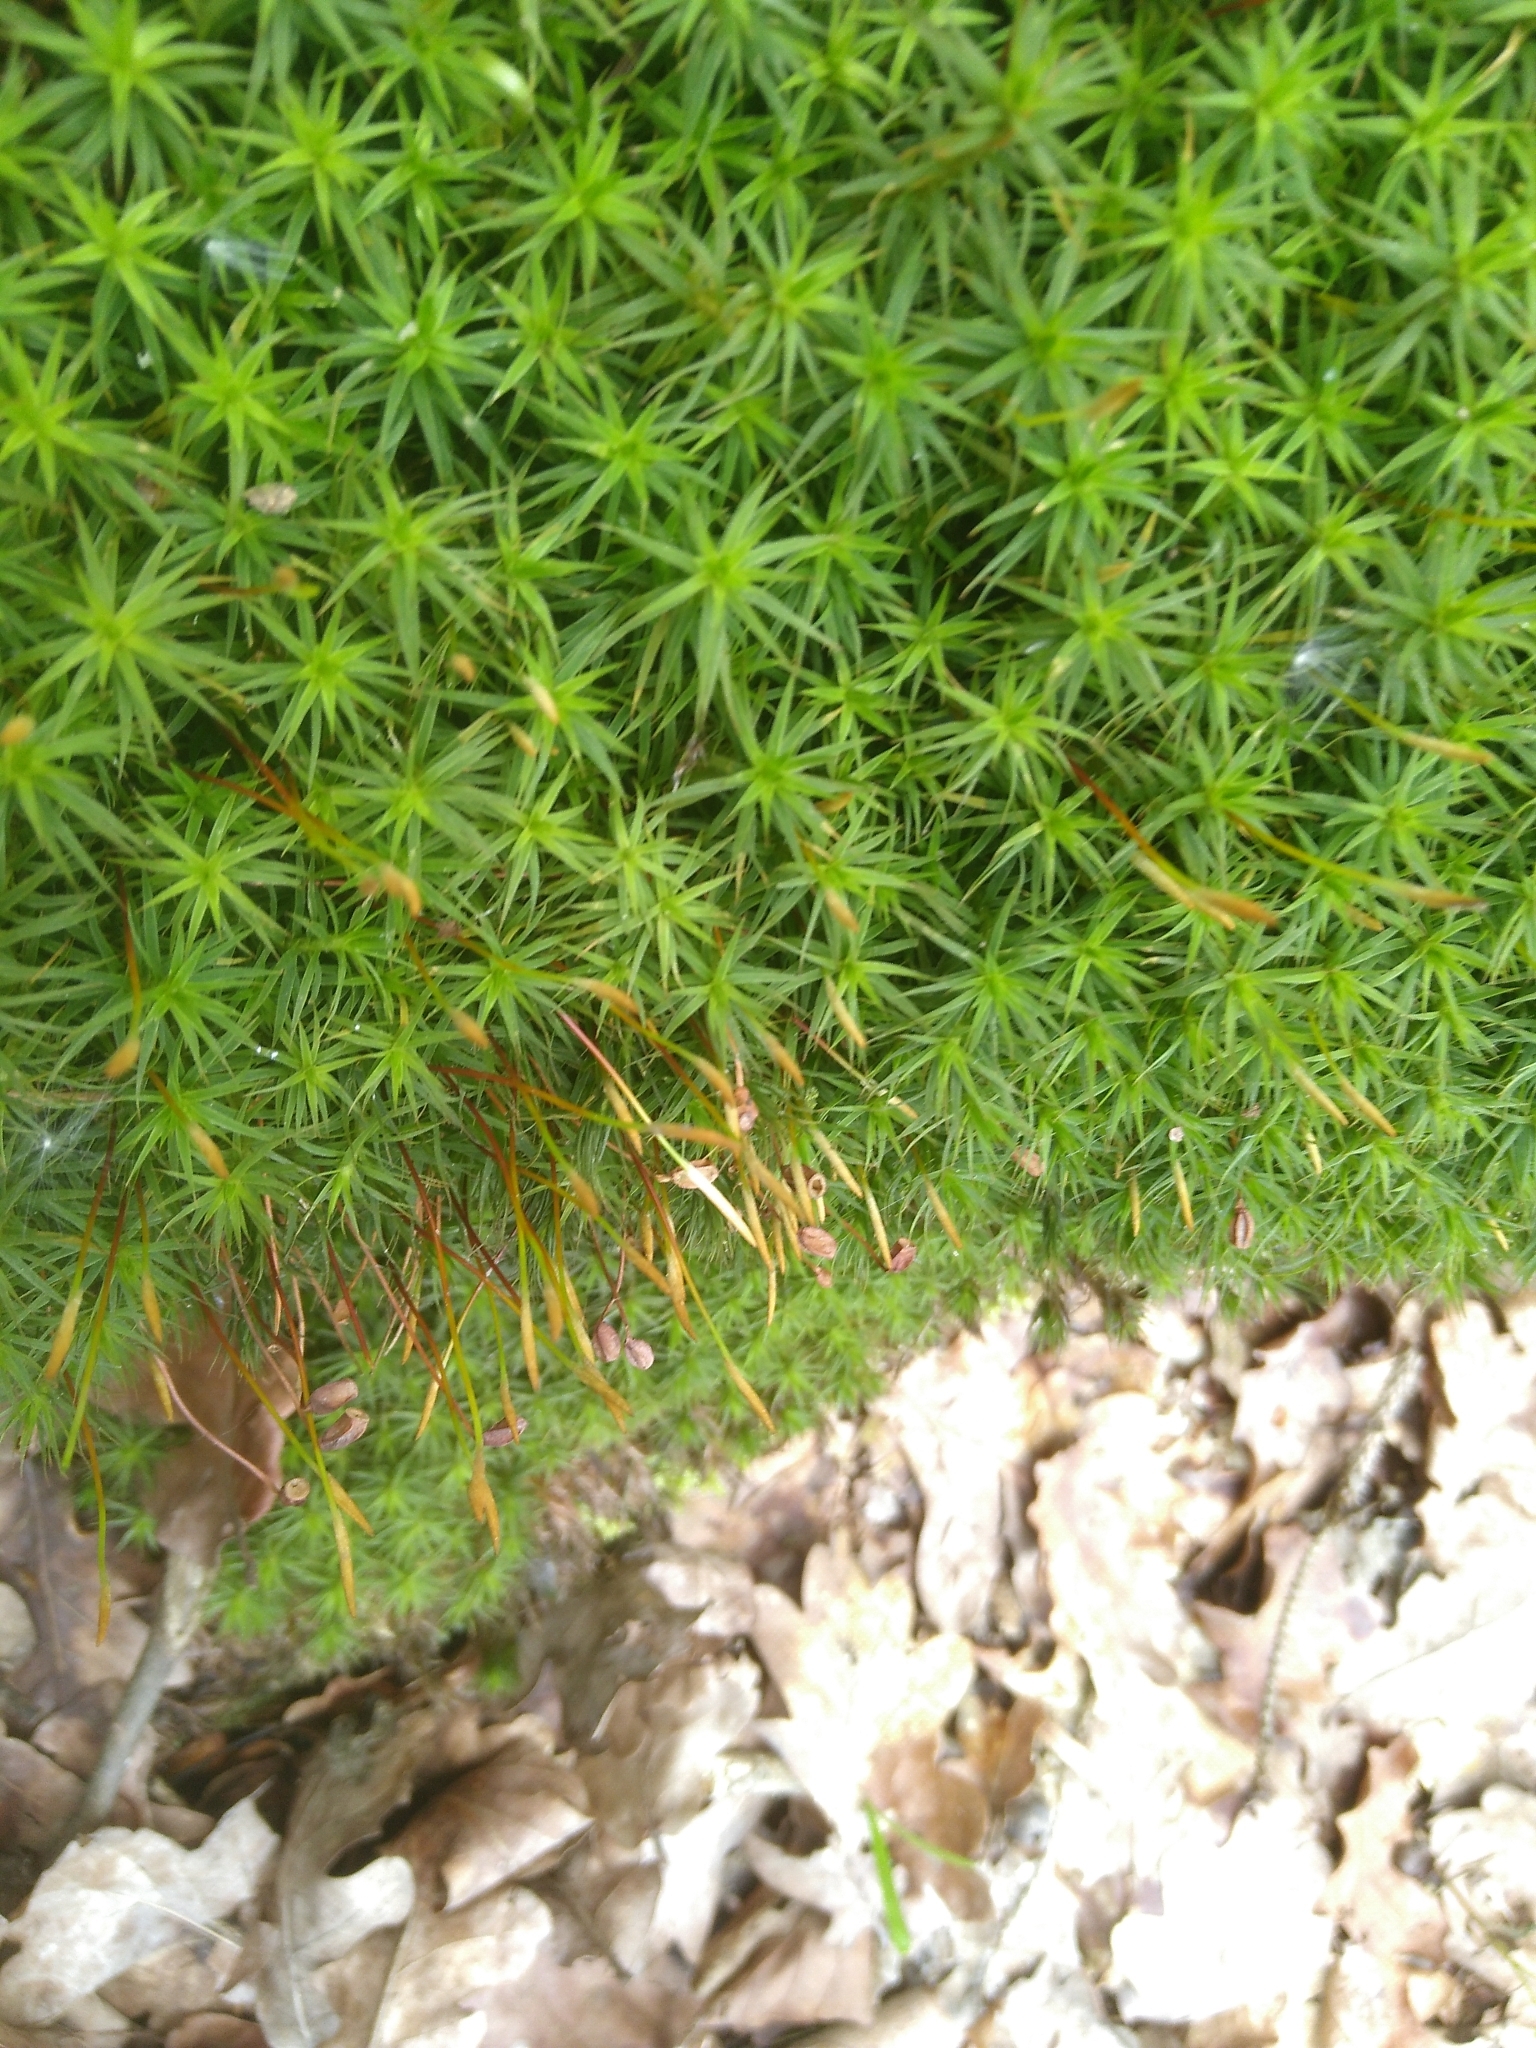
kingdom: Plantae
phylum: Bryophyta
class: Polytrichopsida
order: Polytrichales
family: Polytrichaceae
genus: Polytrichum
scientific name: Polytrichum formosum
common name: Bank haircap moss
